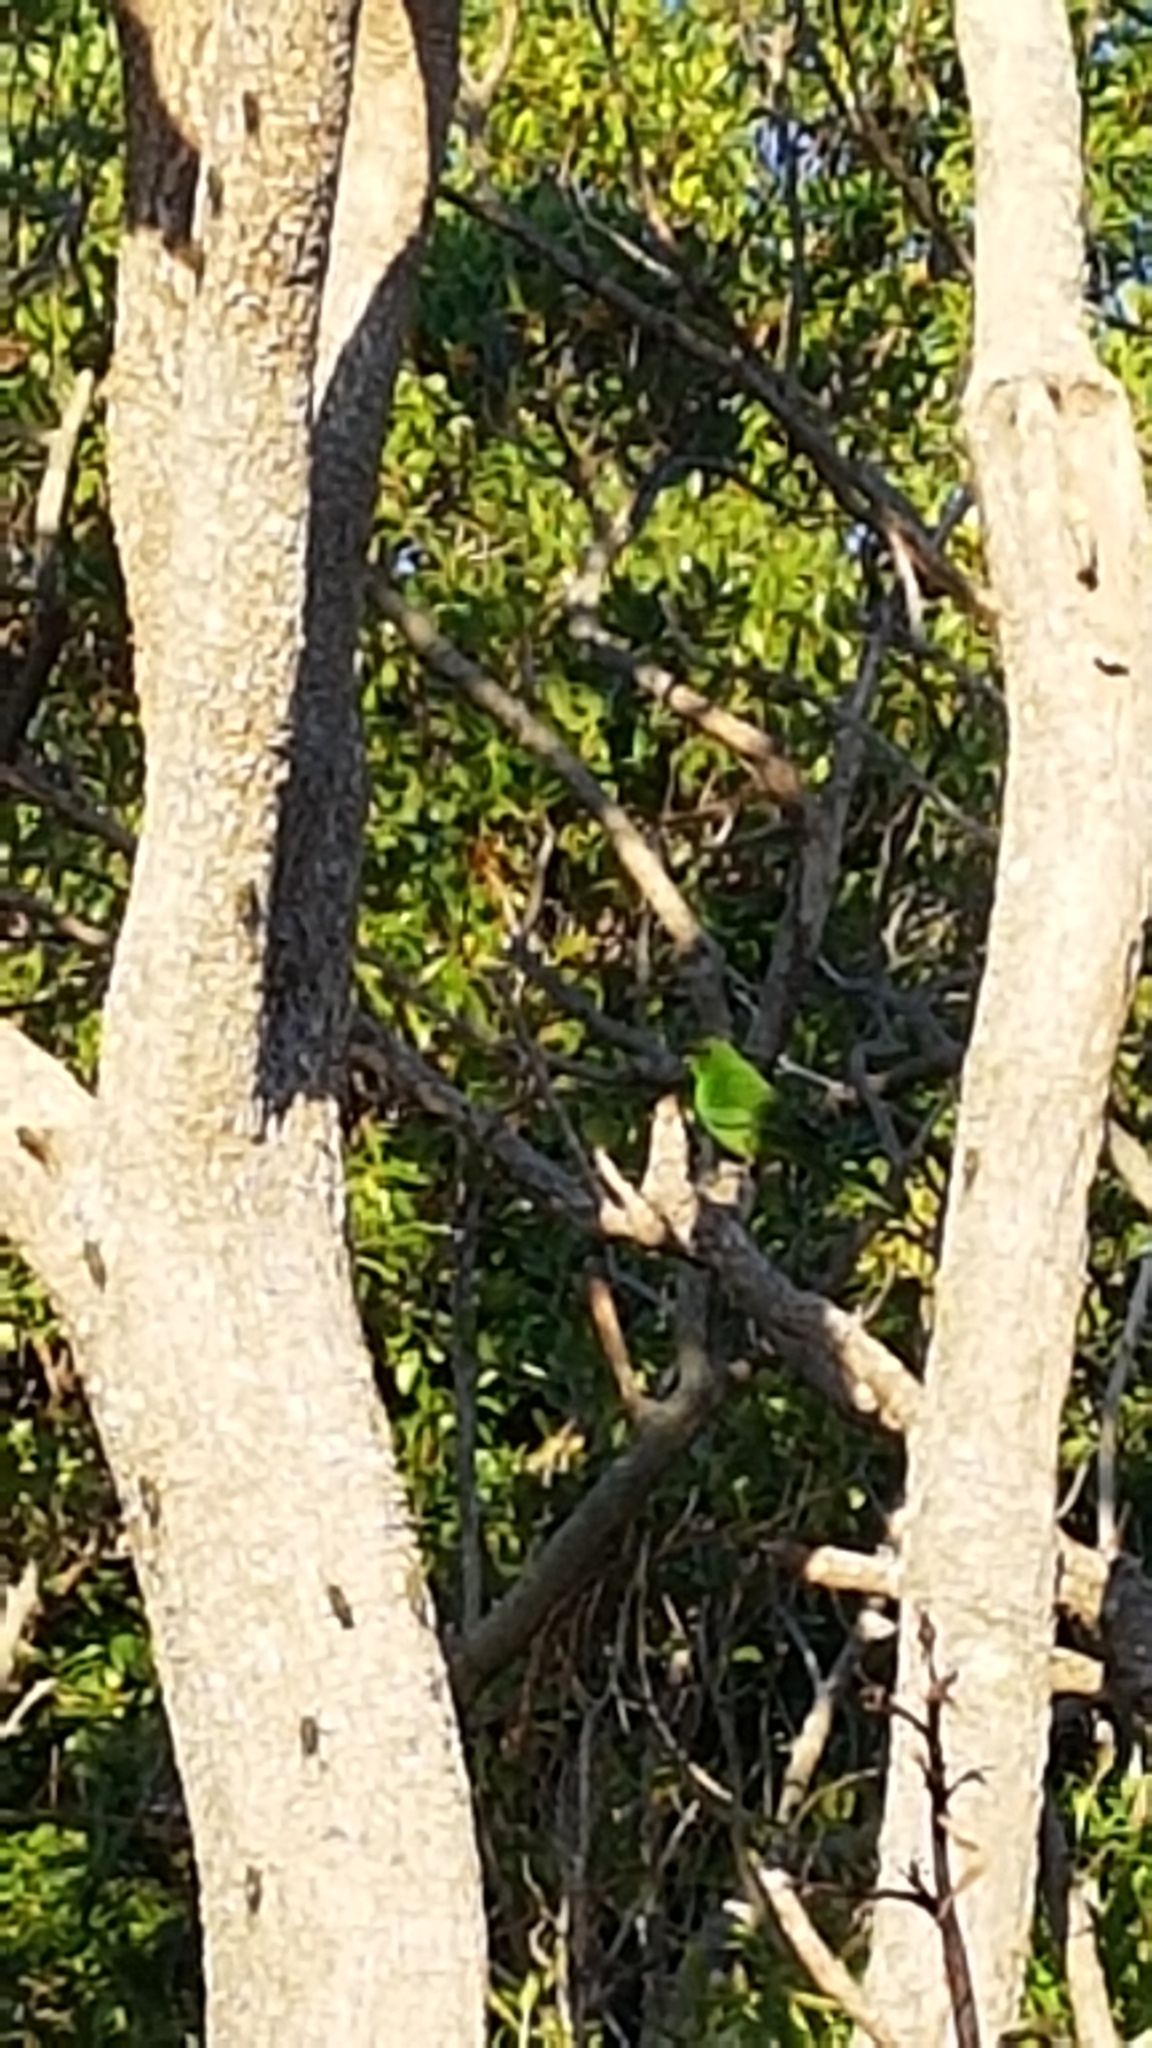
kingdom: Animalia
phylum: Chordata
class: Aves
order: Psittaciformes
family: Psittacidae
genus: Cyanoramphus
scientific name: Cyanoramphus novaezelandiae
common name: Red-fronted parakeet
